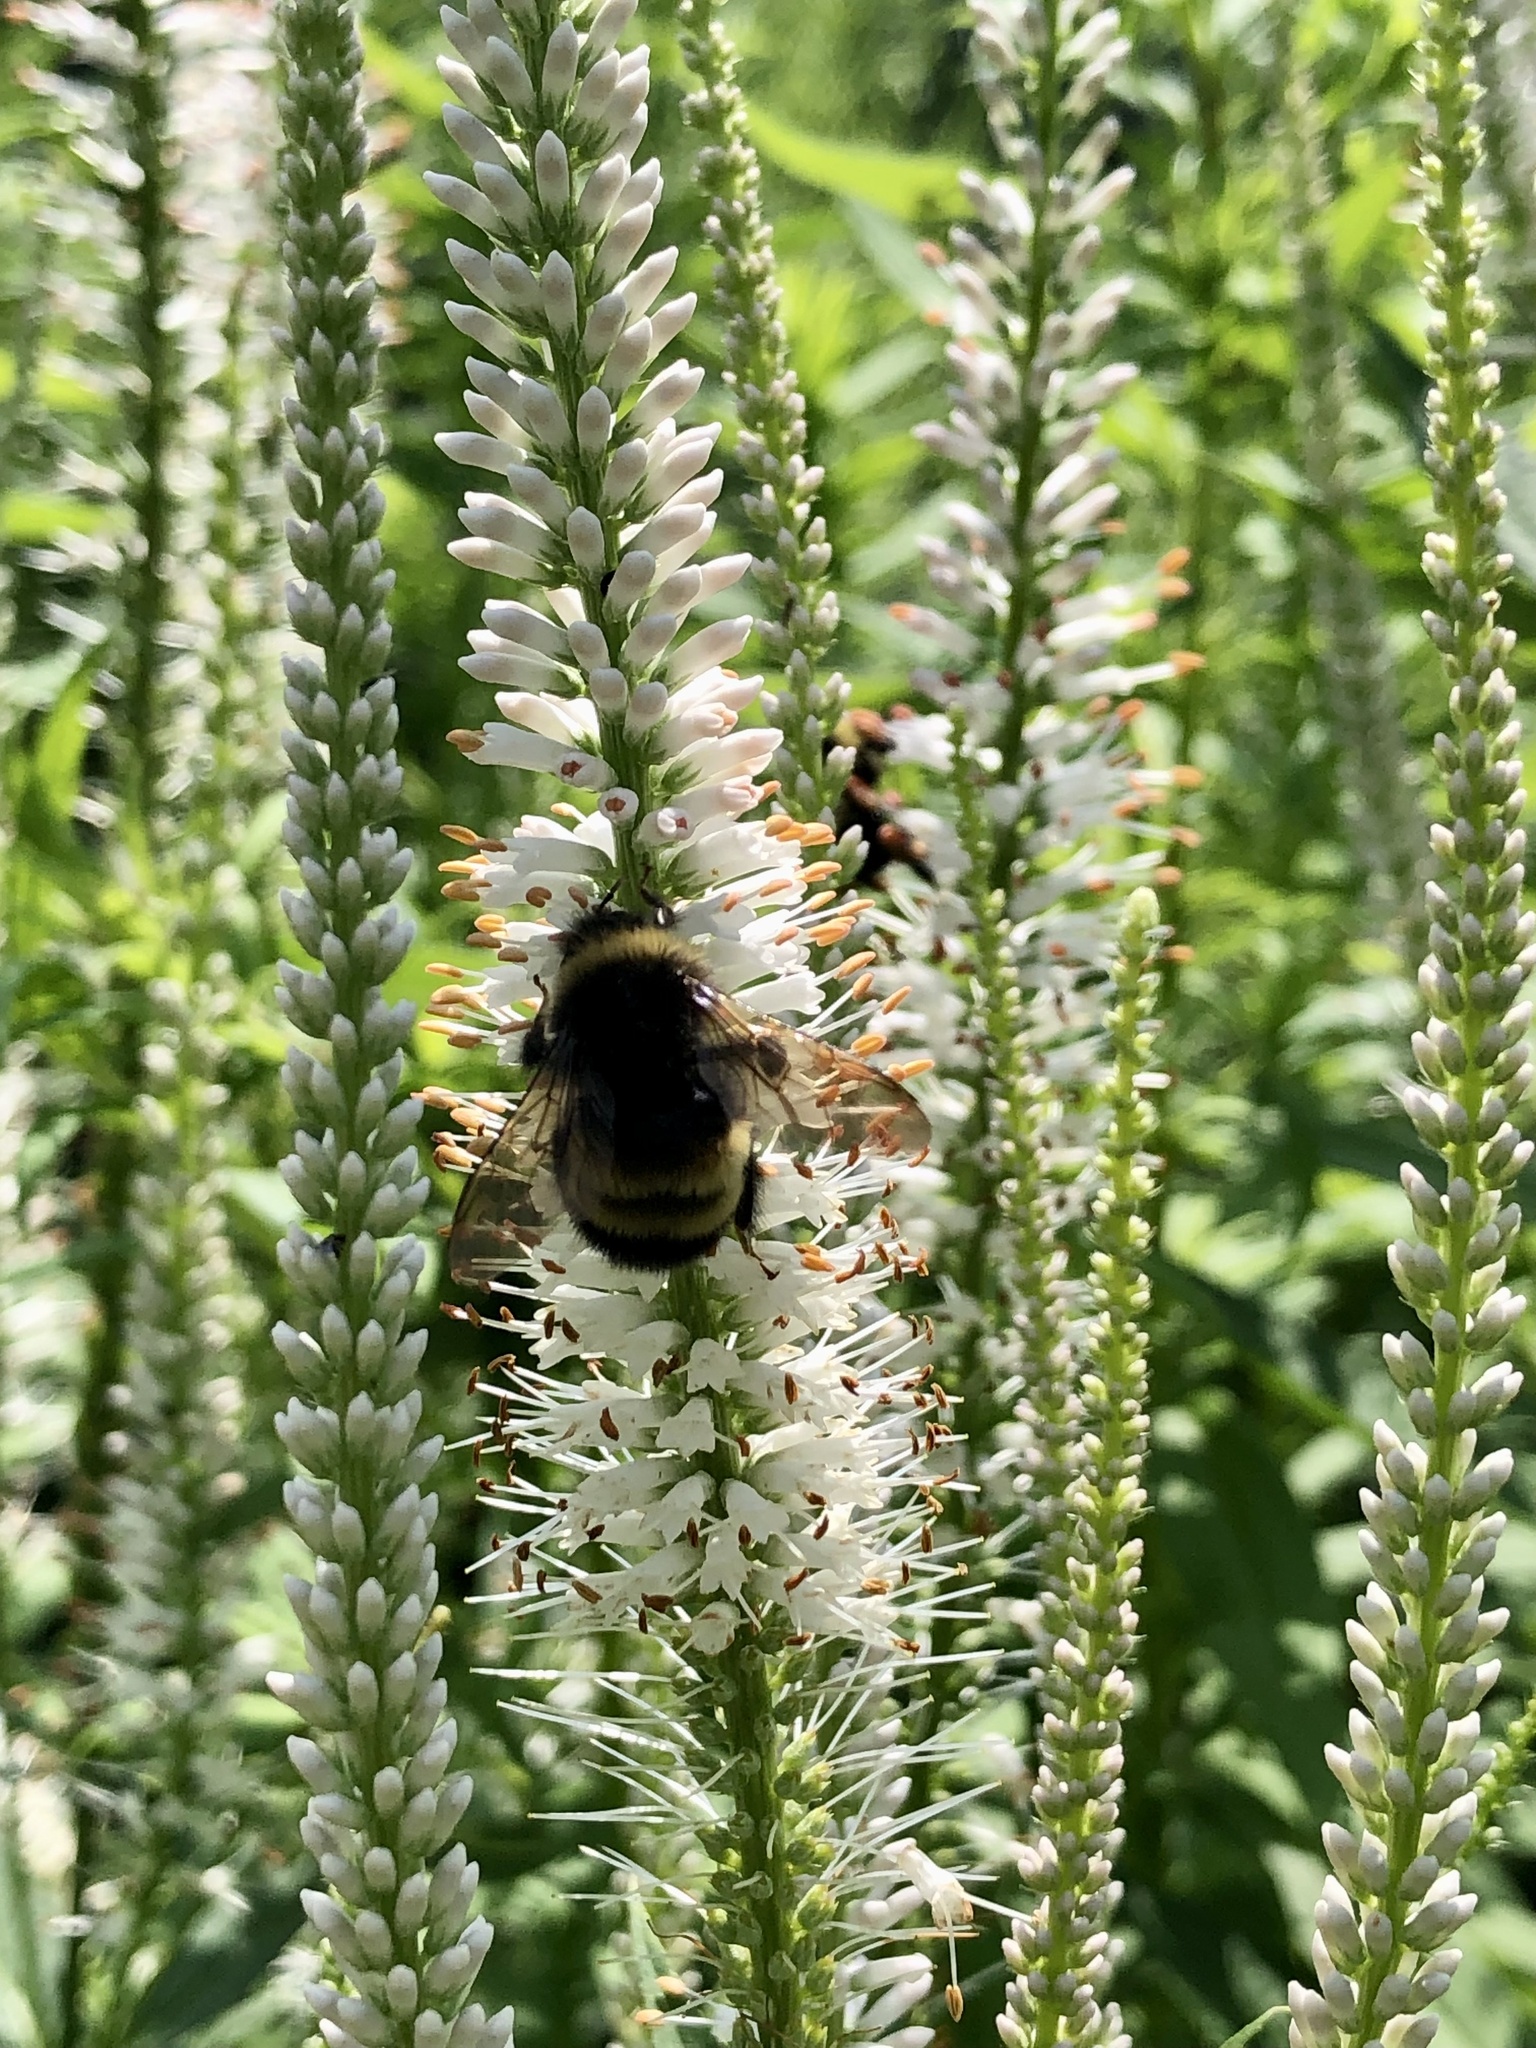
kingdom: Animalia
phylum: Arthropoda
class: Insecta
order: Hymenoptera
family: Apidae
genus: Bombus
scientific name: Bombus terricola
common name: Yellow-banded bumble bee
